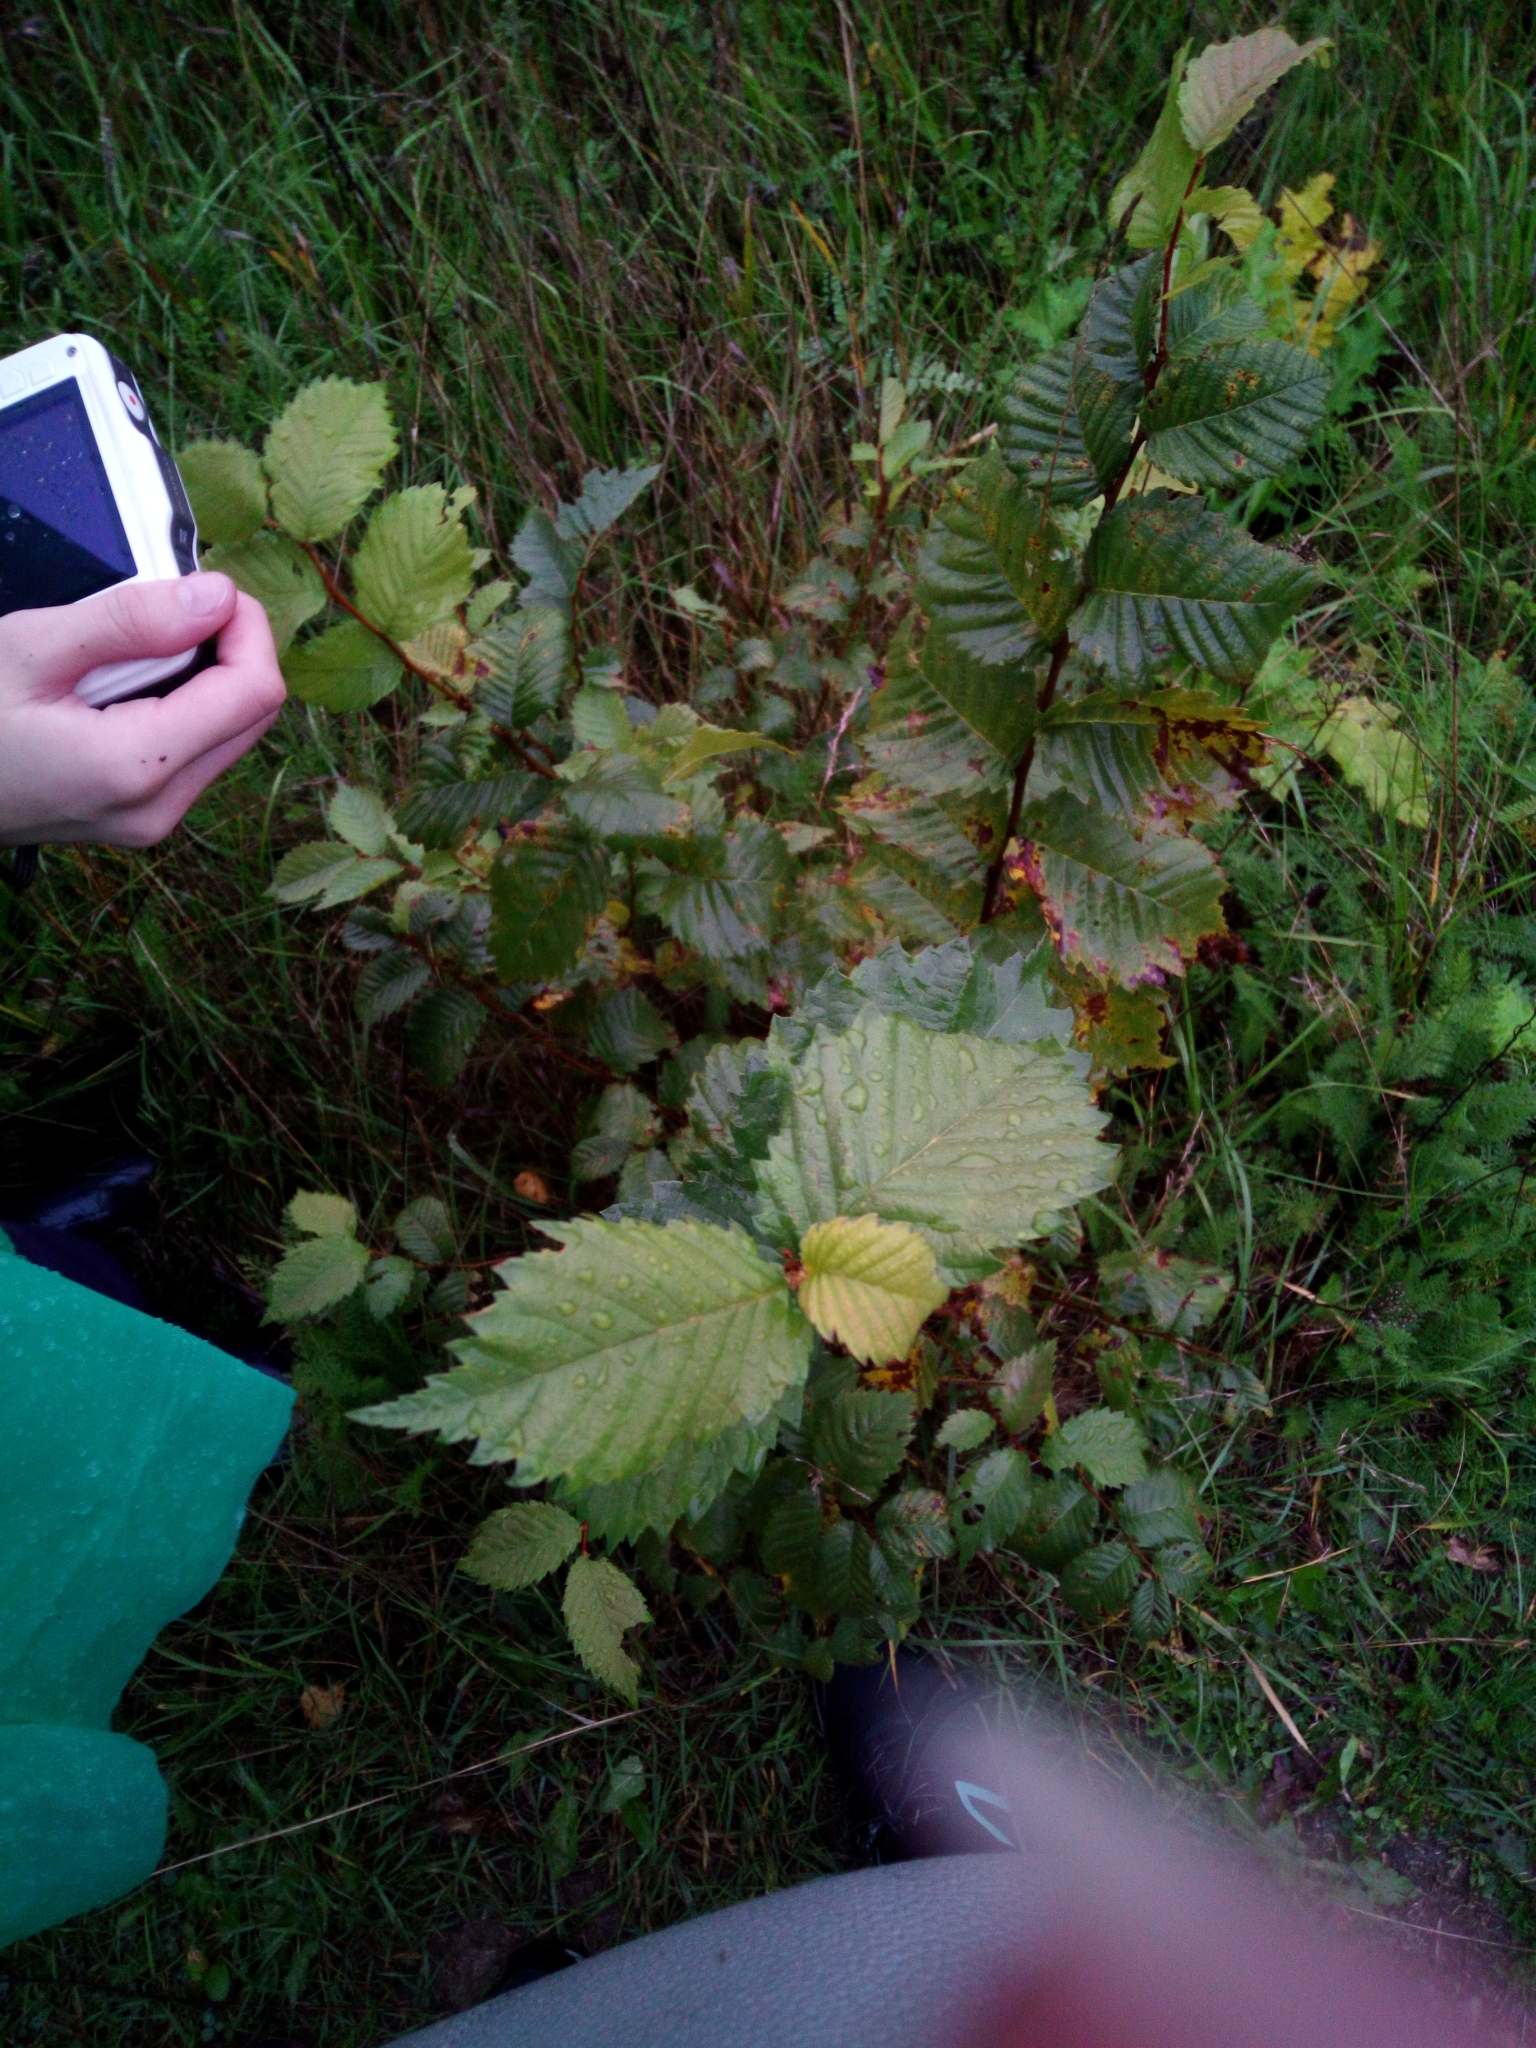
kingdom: Plantae
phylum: Tracheophyta
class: Magnoliopsida
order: Rosales
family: Ulmaceae
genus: Ulmus
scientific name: Ulmus laevis
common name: European white-elm
